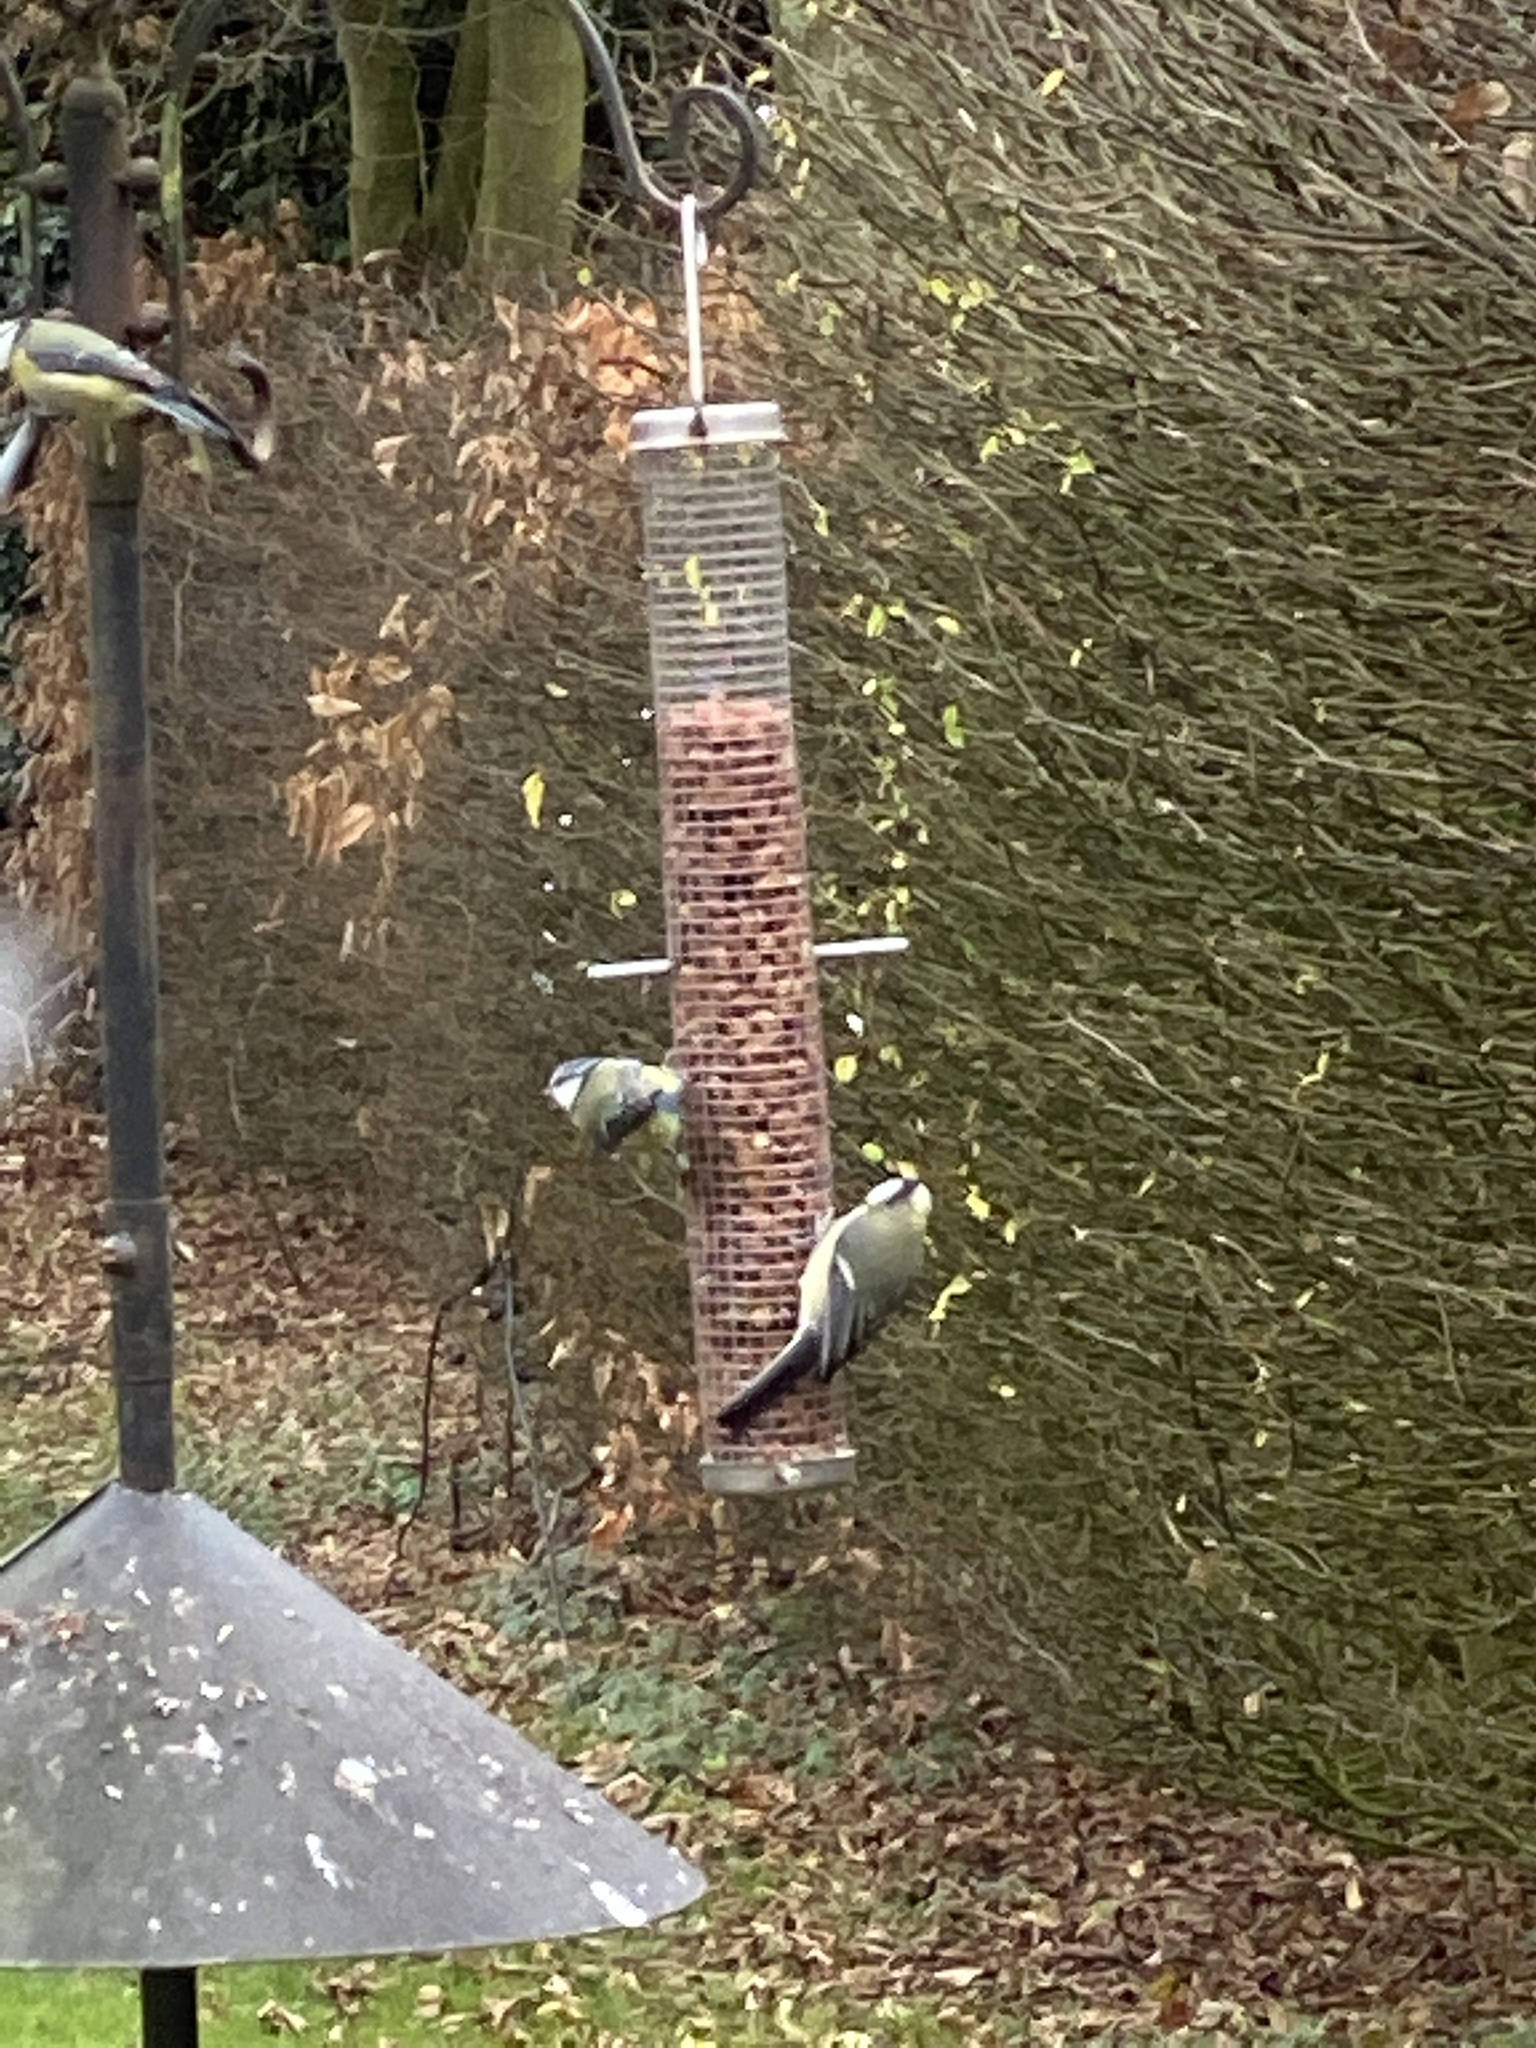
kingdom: Animalia
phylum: Chordata
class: Aves
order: Passeriformes
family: Paridae
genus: Parus
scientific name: Parus major
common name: Great tit
